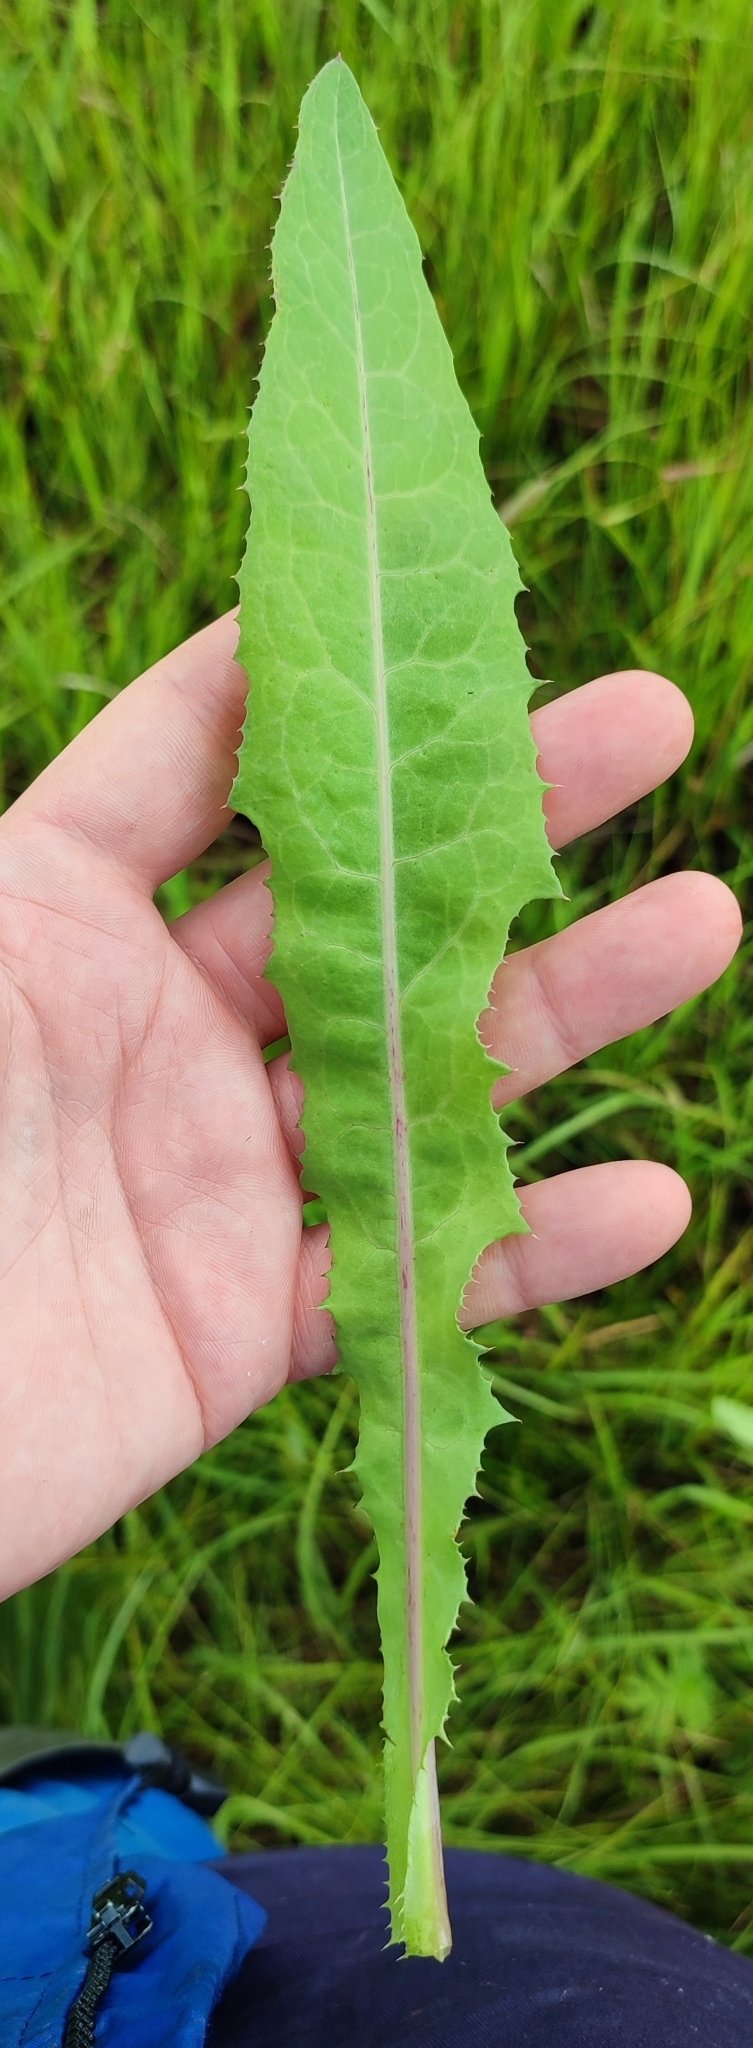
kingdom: Plantae
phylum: Tracheophyta
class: Magnoliopsida
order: Asterales
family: Asteraceae
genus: Sonchus
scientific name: Sonchus arvensis
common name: Perennial sow-thistle
